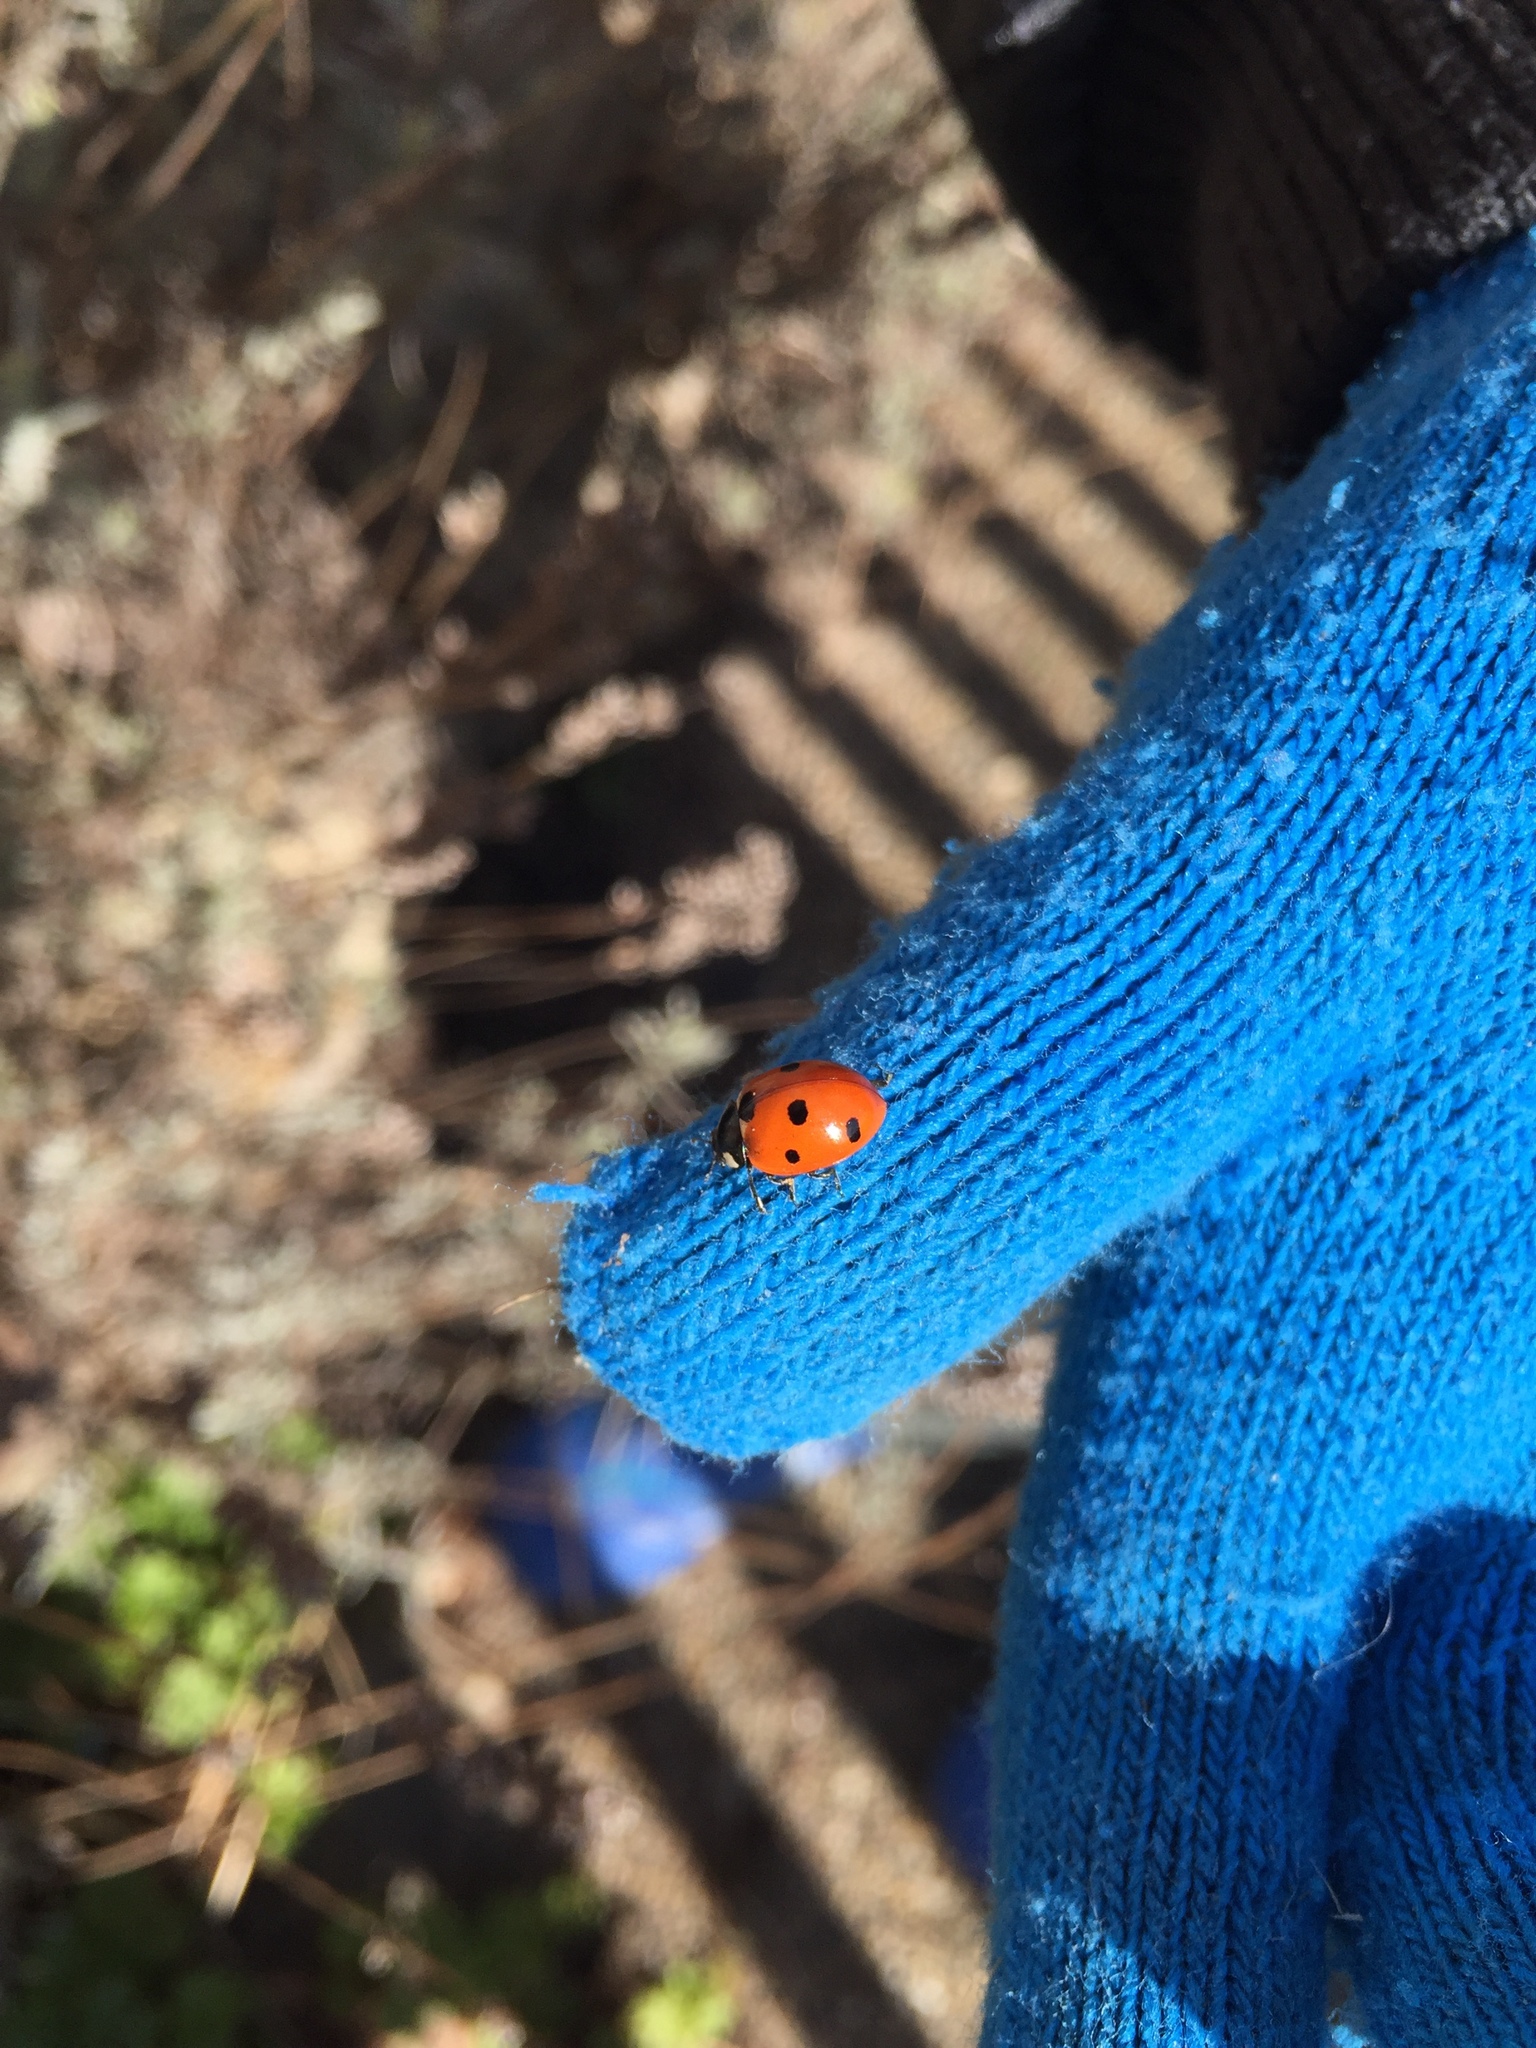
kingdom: Animalia
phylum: Arthropoda
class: Insecta
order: Coleoptera
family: Coccinellidae
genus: Coccinella
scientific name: Coccinella septempunctata
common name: Sevenspotted lady beetle
